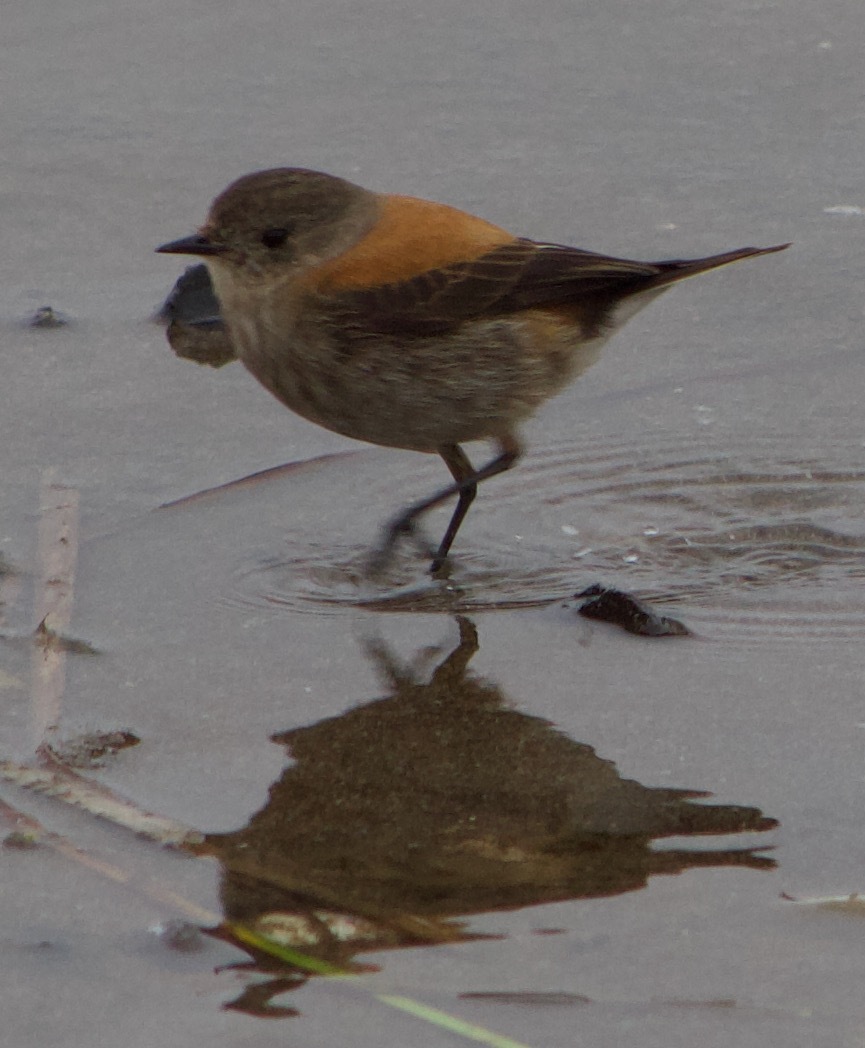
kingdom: Animalia
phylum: Chordata
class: Aves
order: Passeriformes
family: Tyrannidae
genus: Lessonia
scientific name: Lessonia rufa
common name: Austral negrito
